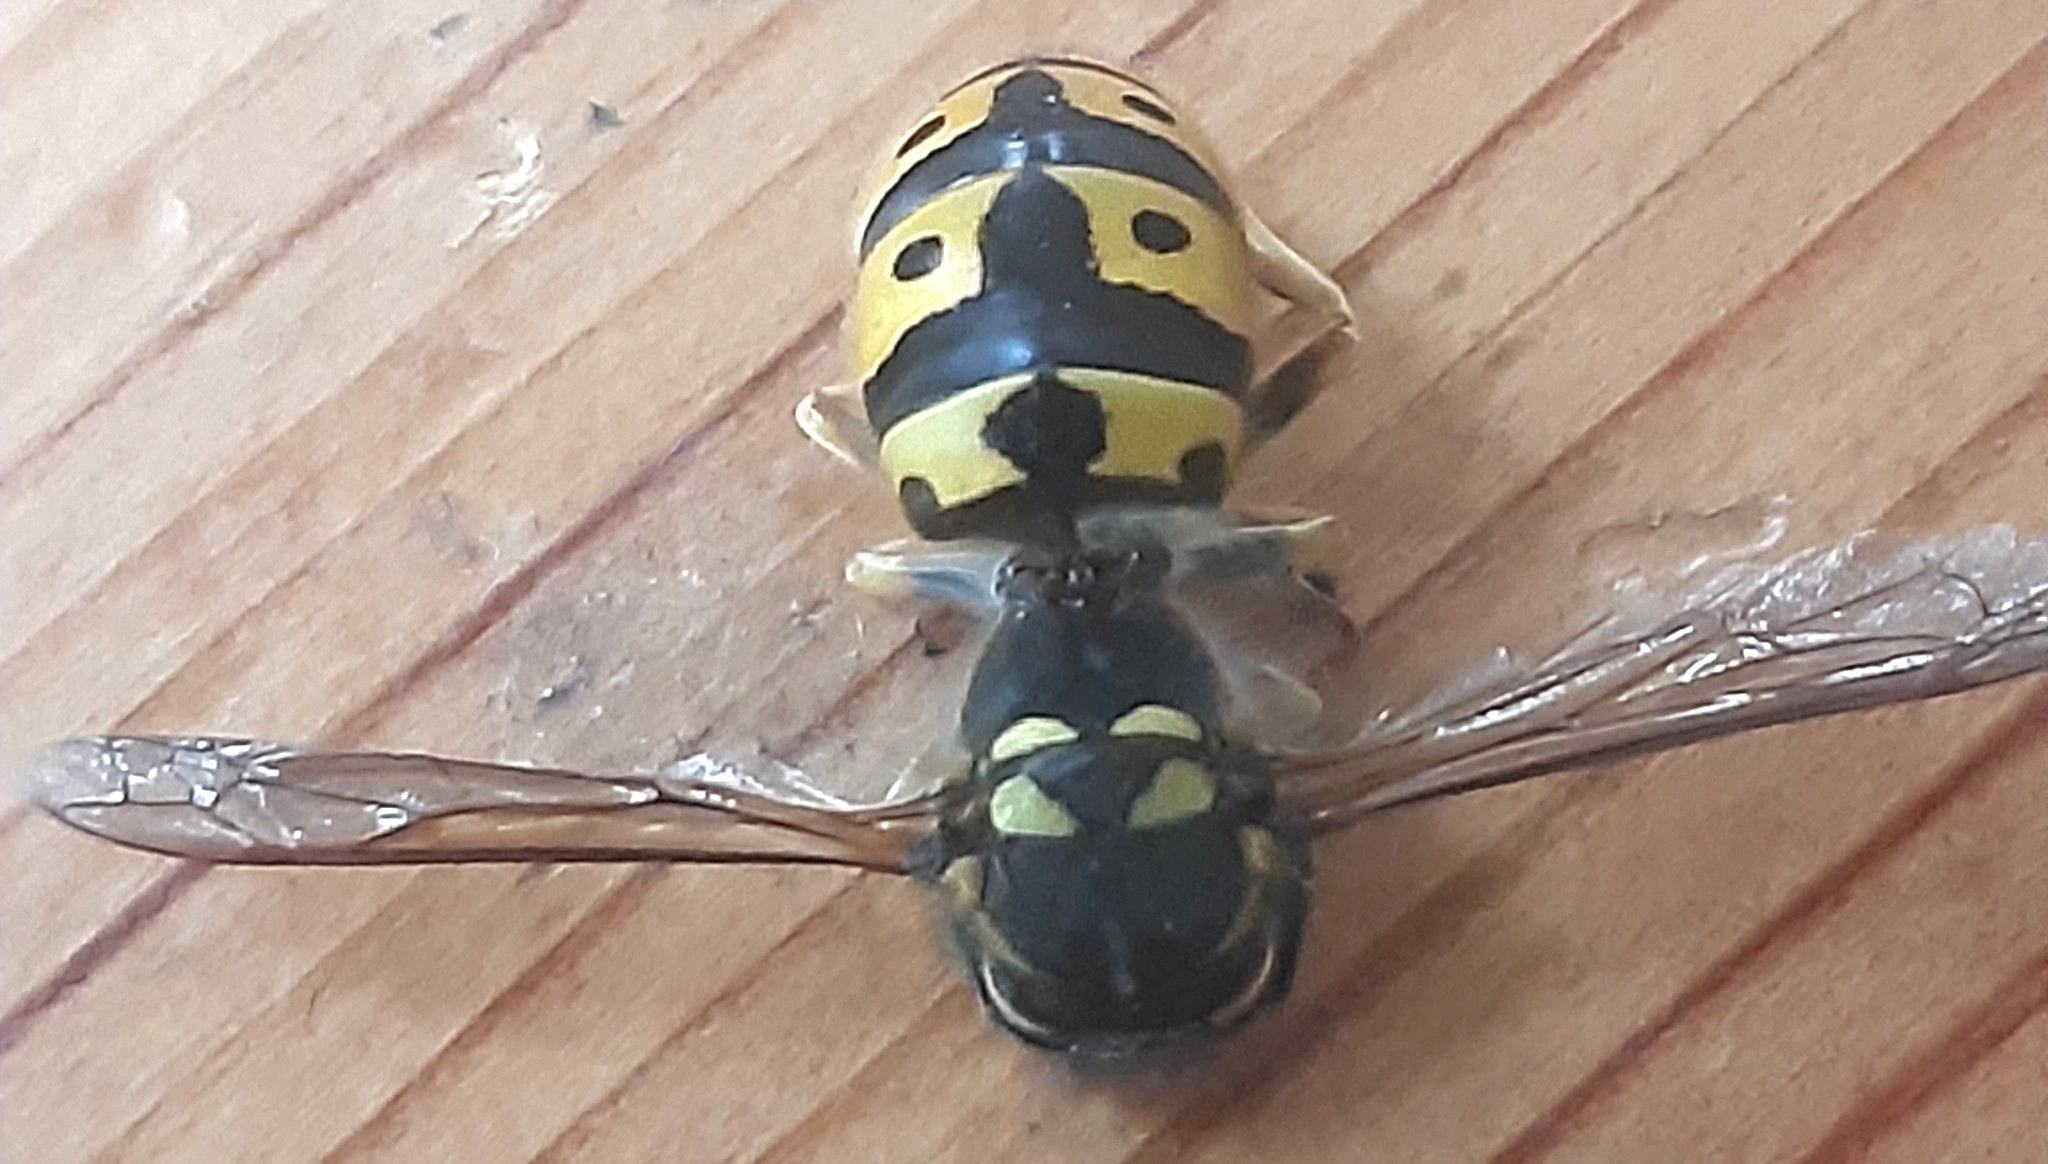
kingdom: Animalia
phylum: Arthropoda
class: Insecta
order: Hymenoptera
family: Vespidae
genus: Vespula
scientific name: Vespula germanica
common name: German wasp
